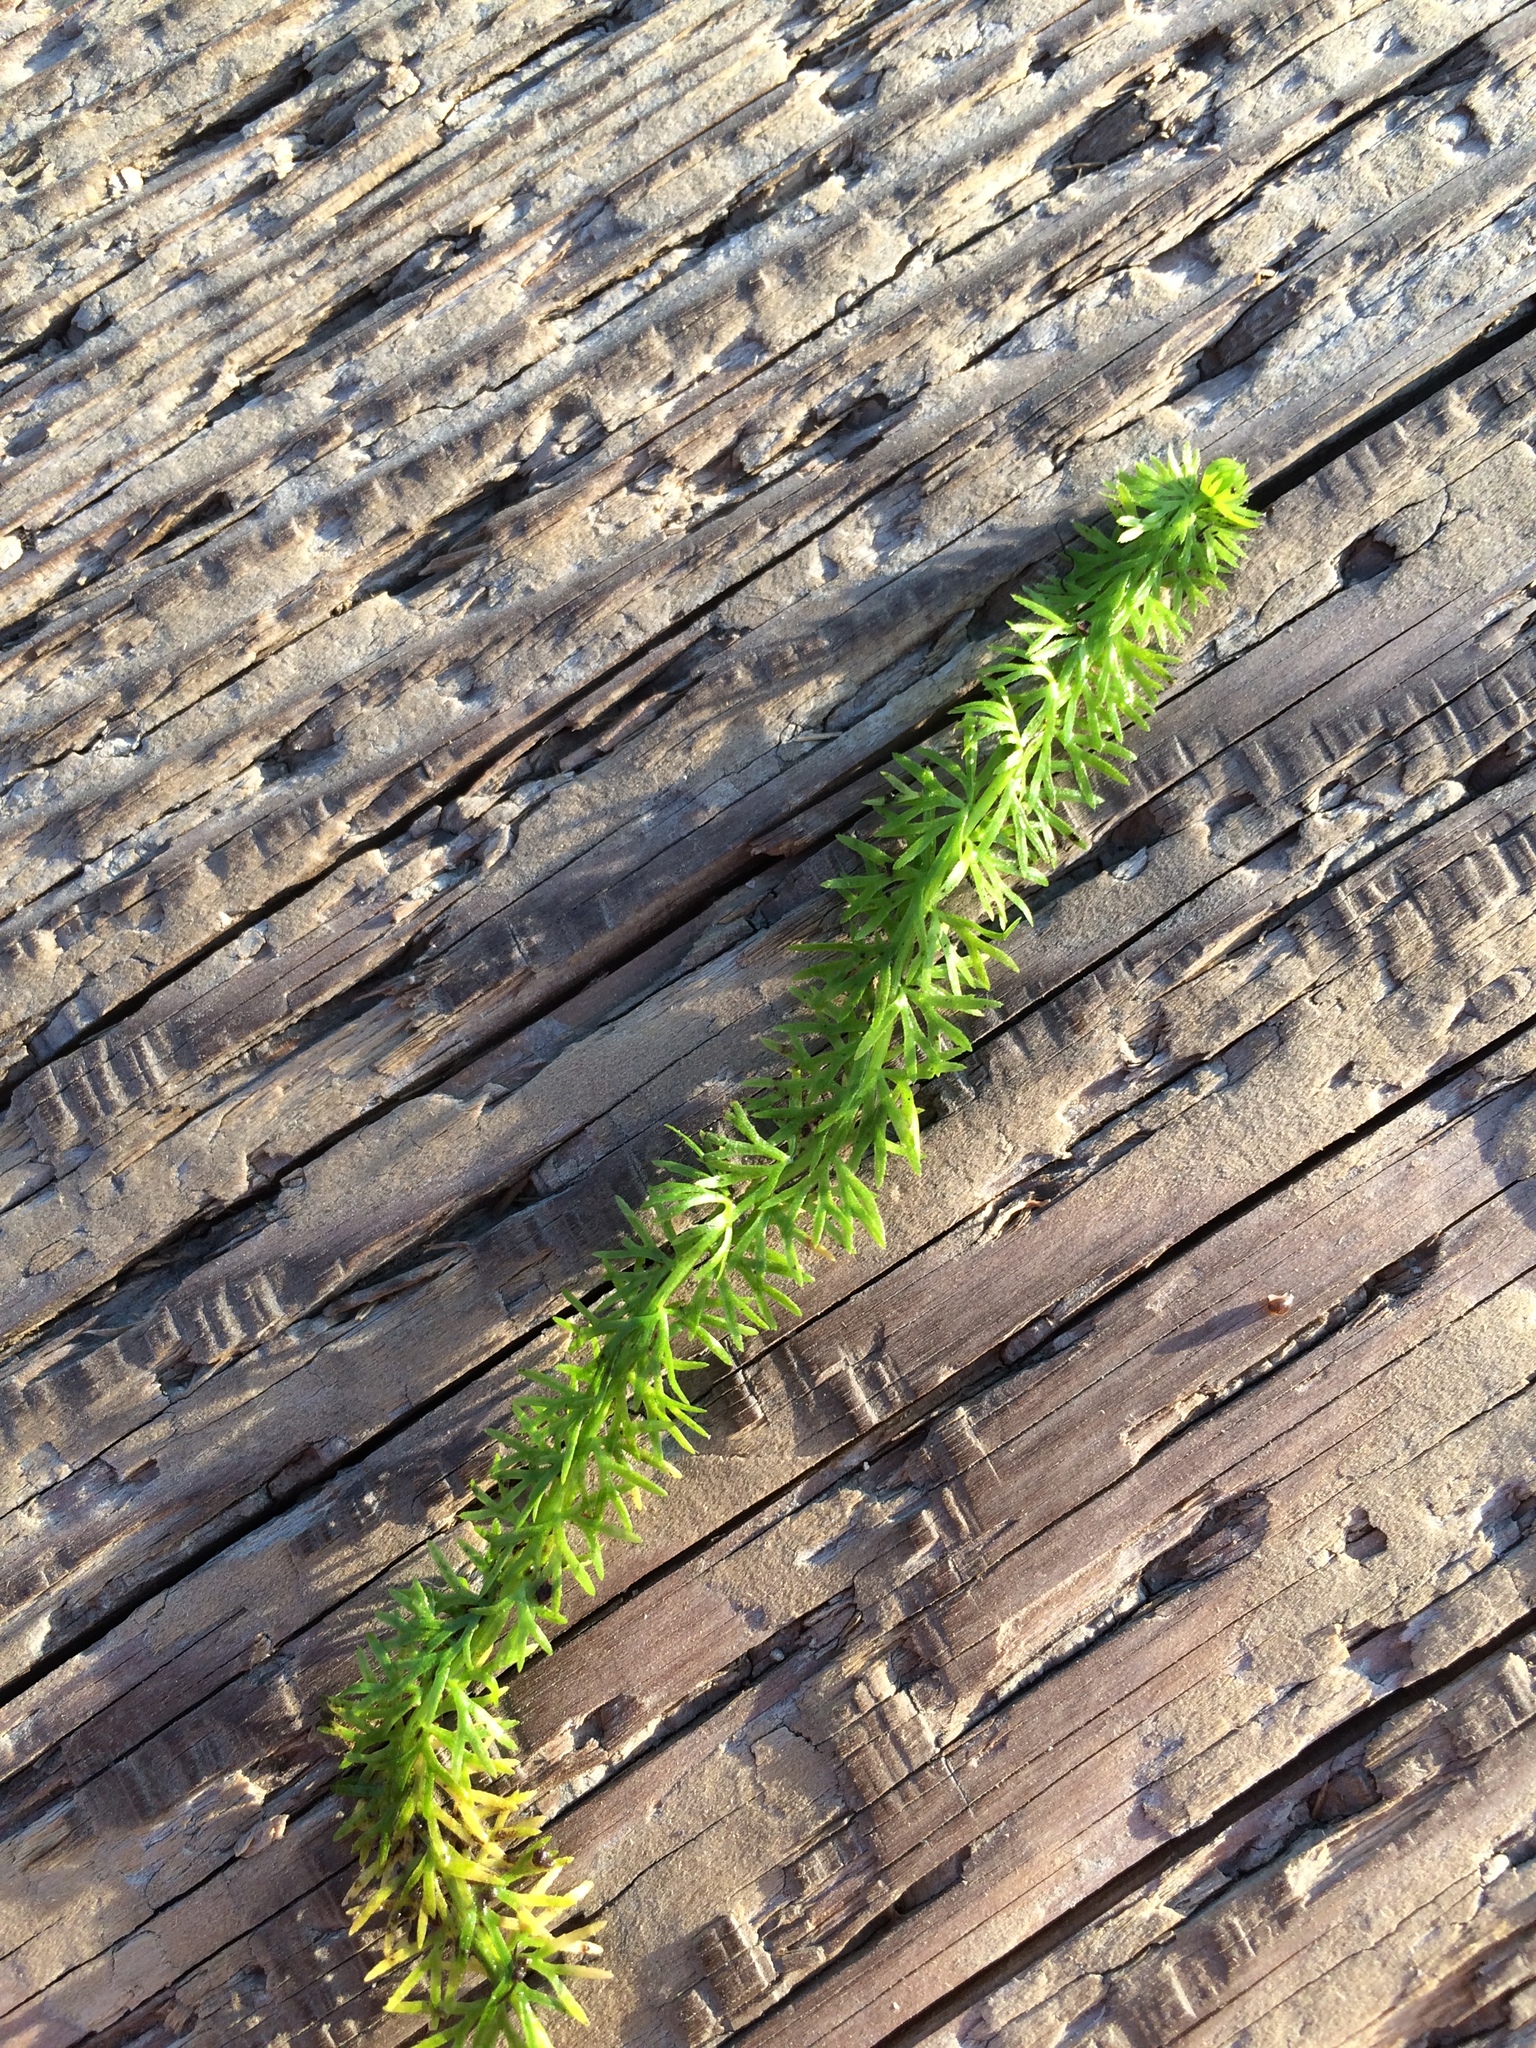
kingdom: Plantae
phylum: Tracheophyta
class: Magnoliopsida
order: Lamiales
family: Lentibulariaceae
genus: Utricularia
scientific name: Utricularia intermedia
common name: Intermediate bladderwort
